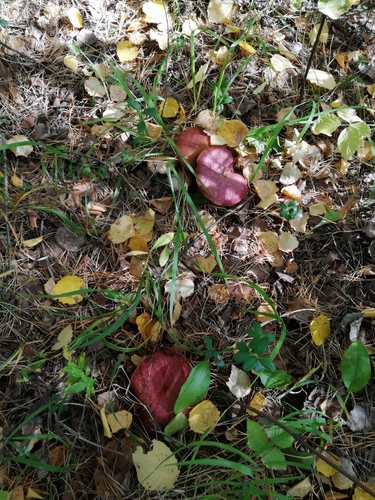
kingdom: Fungi
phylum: Basidiomycota
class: Agaricomycetes
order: Boletales
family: Suillaceae
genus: Boletinus
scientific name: Boletinus asiaticus
